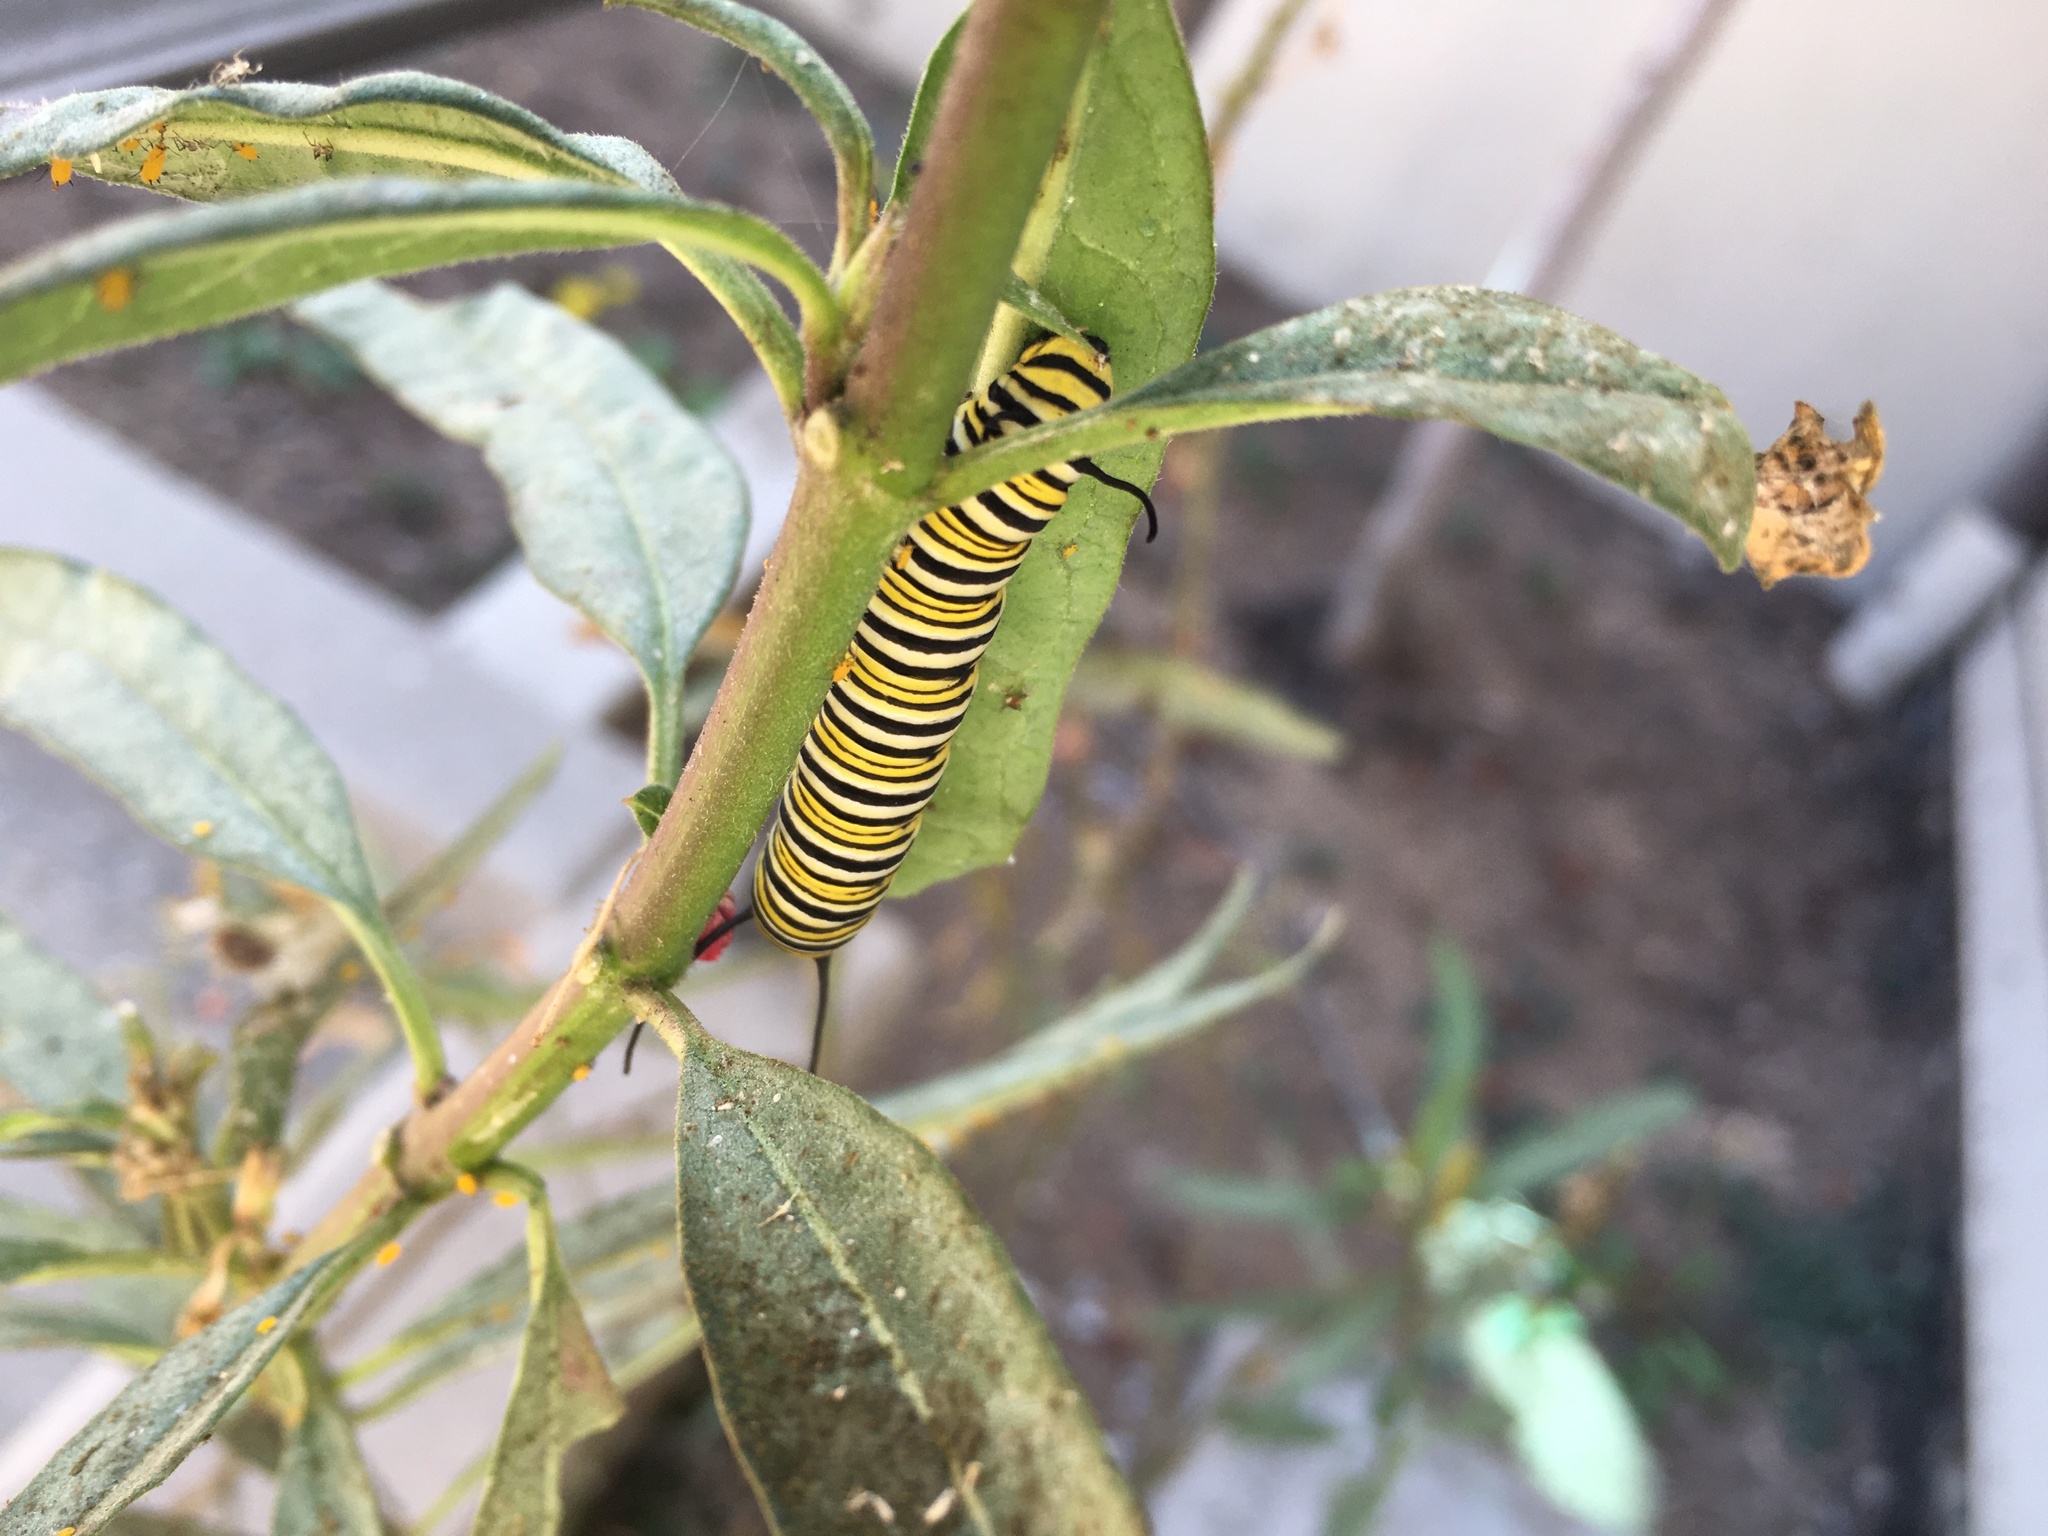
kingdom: Animalia
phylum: Arthropoda
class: Insecta
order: Lepidoptera
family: Nymphalidae
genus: Danaus
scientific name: Danaus plexippus
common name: Monarch
